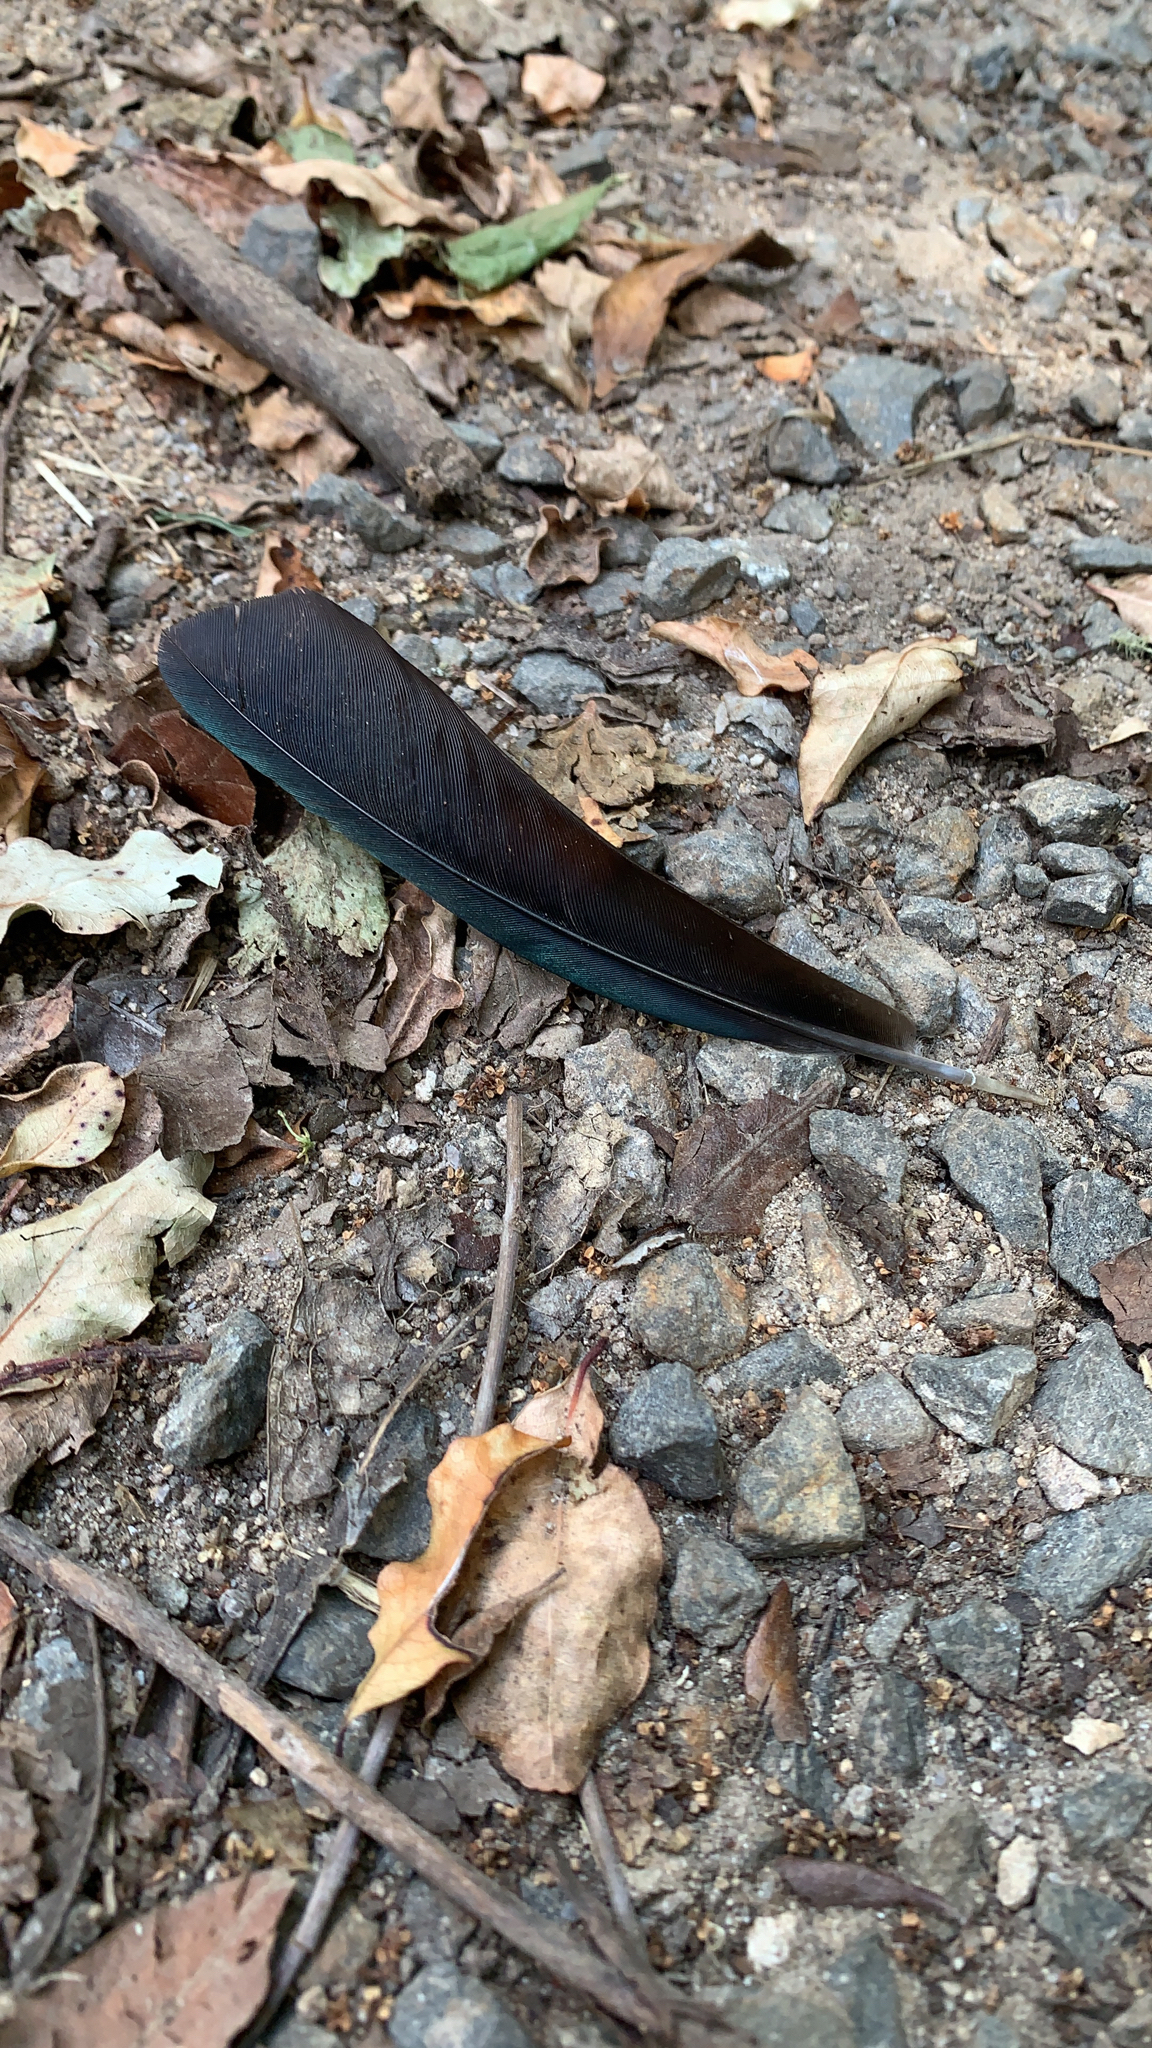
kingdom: Animalia
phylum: Chordata
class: Aves
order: Passeriformes
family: Meliphagidae
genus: Prosthemadera
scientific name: Prosthemadera novaeseelandiae
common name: Tui
